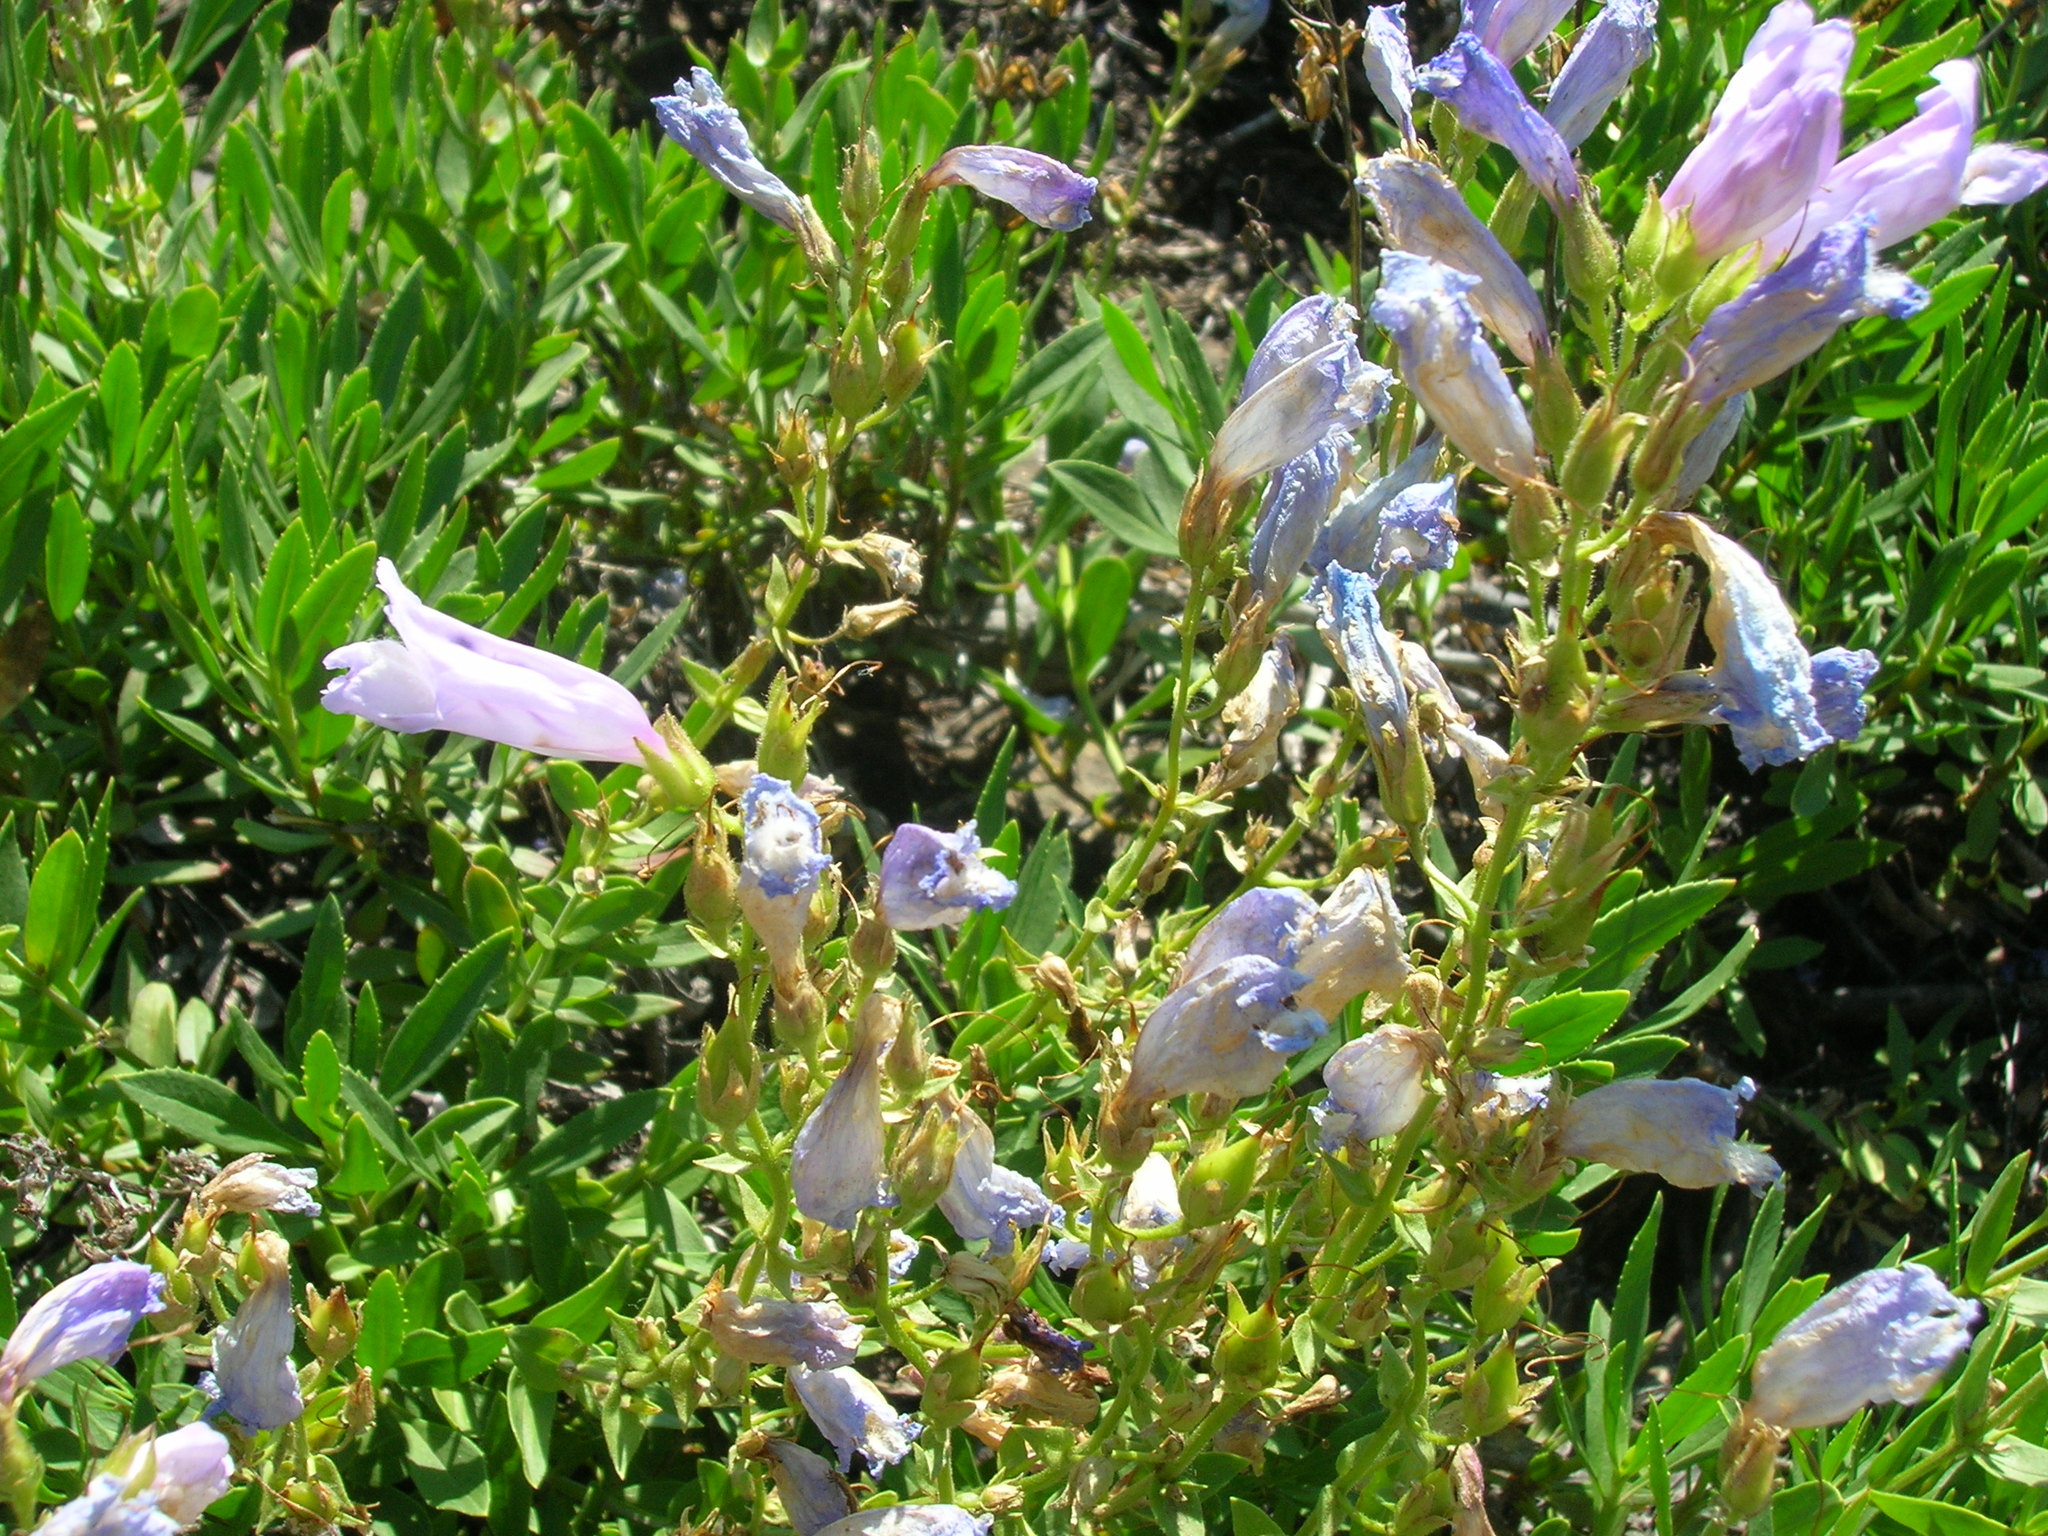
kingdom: Plantae
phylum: Tracheophyta
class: Magnoliopsida
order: Lamiales
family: Plantaginaceae
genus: Penstemon
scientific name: Penstemon fruticosus
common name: Bush penstemon
